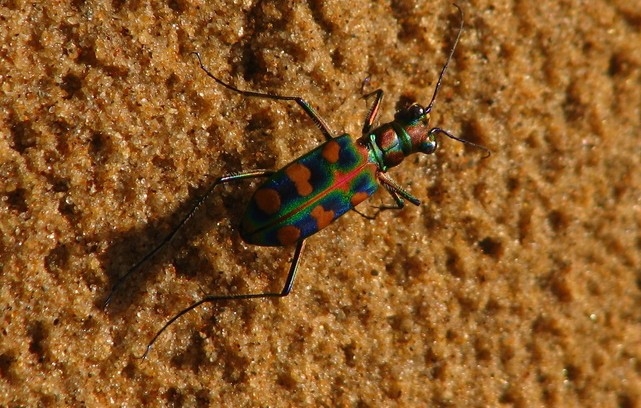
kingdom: Animalia
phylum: Arthropoda
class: Insecta
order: Coleoptera
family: Carabidae
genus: Cicindela
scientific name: Cicindela octonotata
